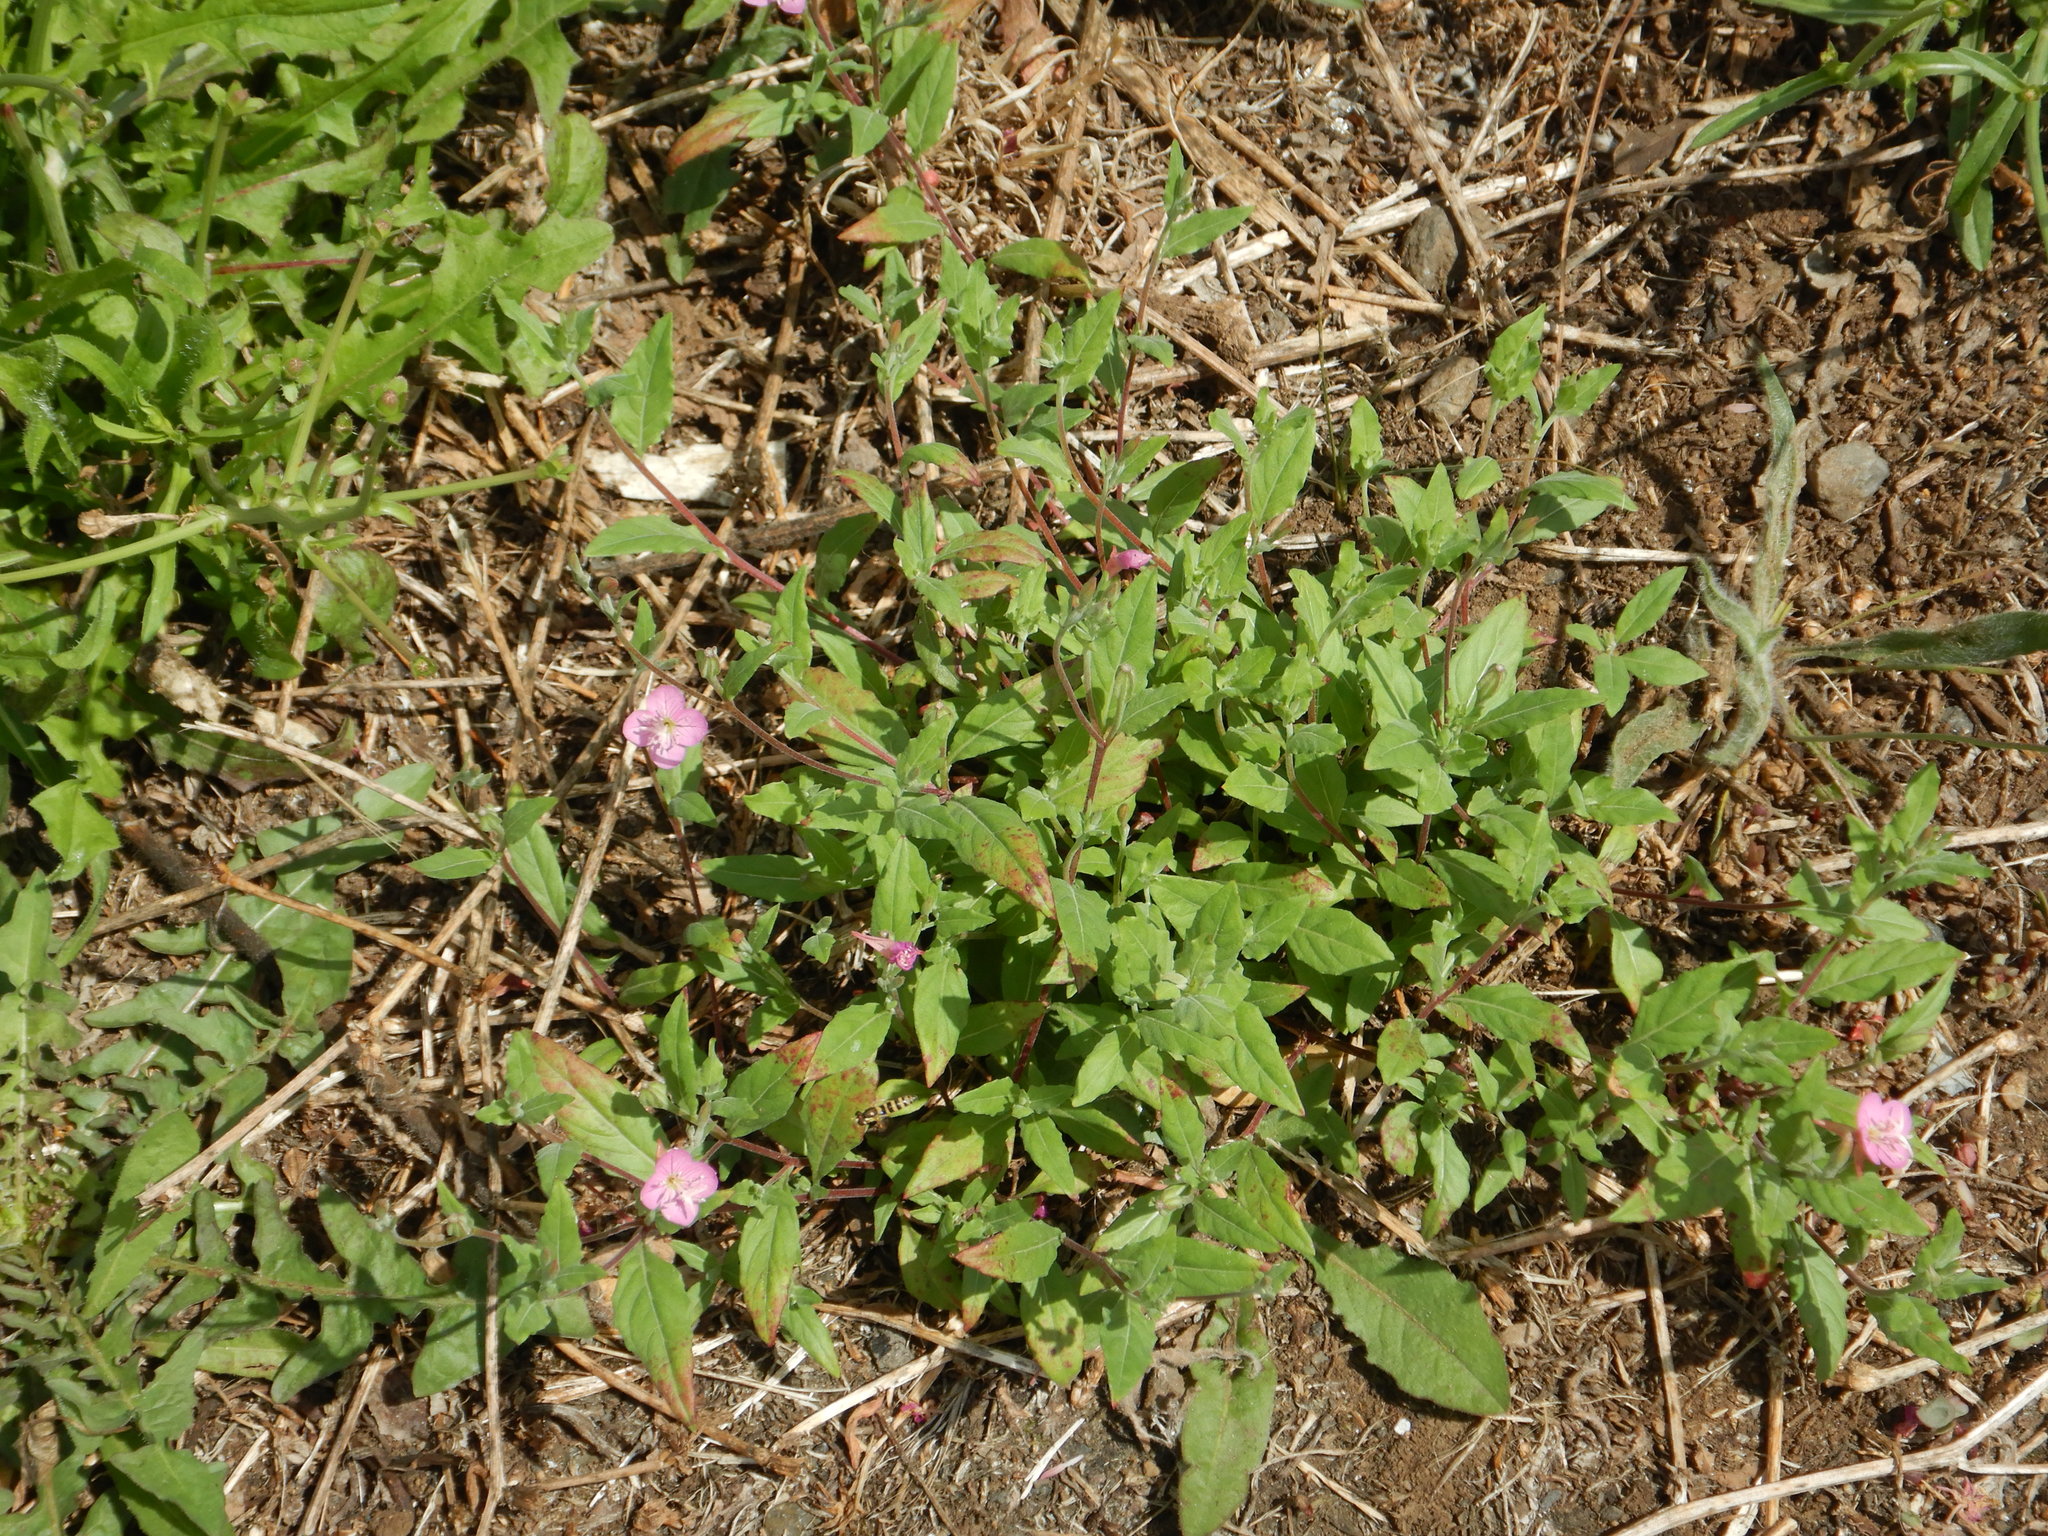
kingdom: Plantae
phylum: Tracheophyta
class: Magnoliopsida
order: Myrtales
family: Onagraceae
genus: Oenothera
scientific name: Oenothera rosea
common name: Rosy evening-primrose
